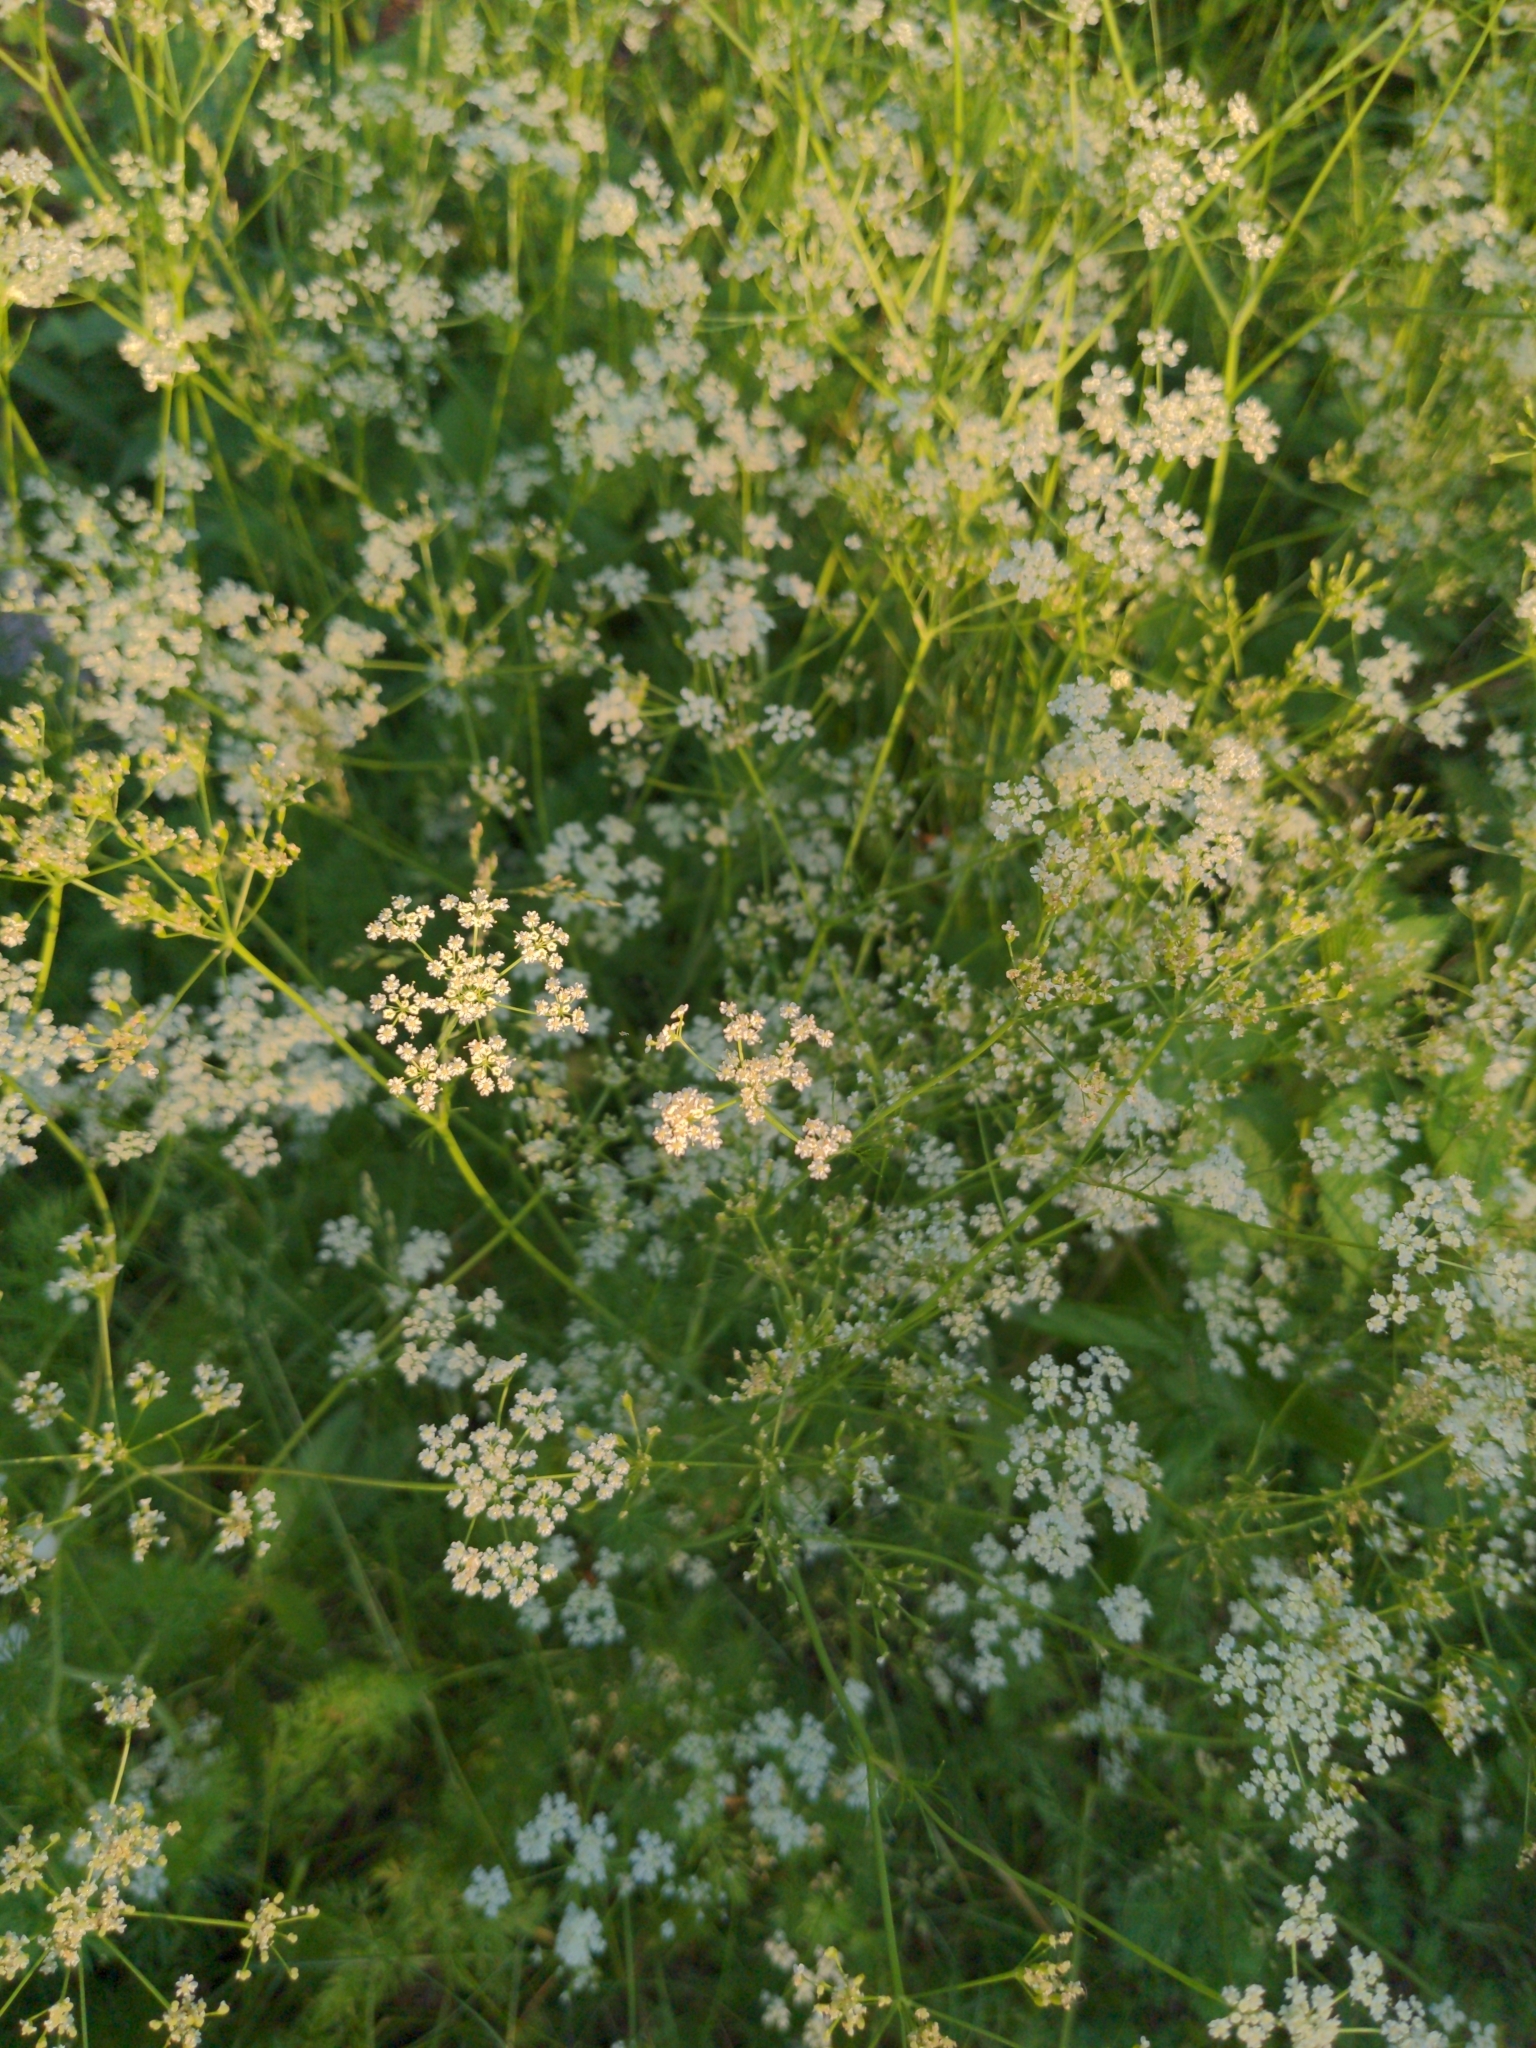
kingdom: Plantae
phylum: Tracheophyta
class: Magnoliopsida
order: Apiales
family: Apiaceae
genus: Carum
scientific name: Carum carvi
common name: Caraway
